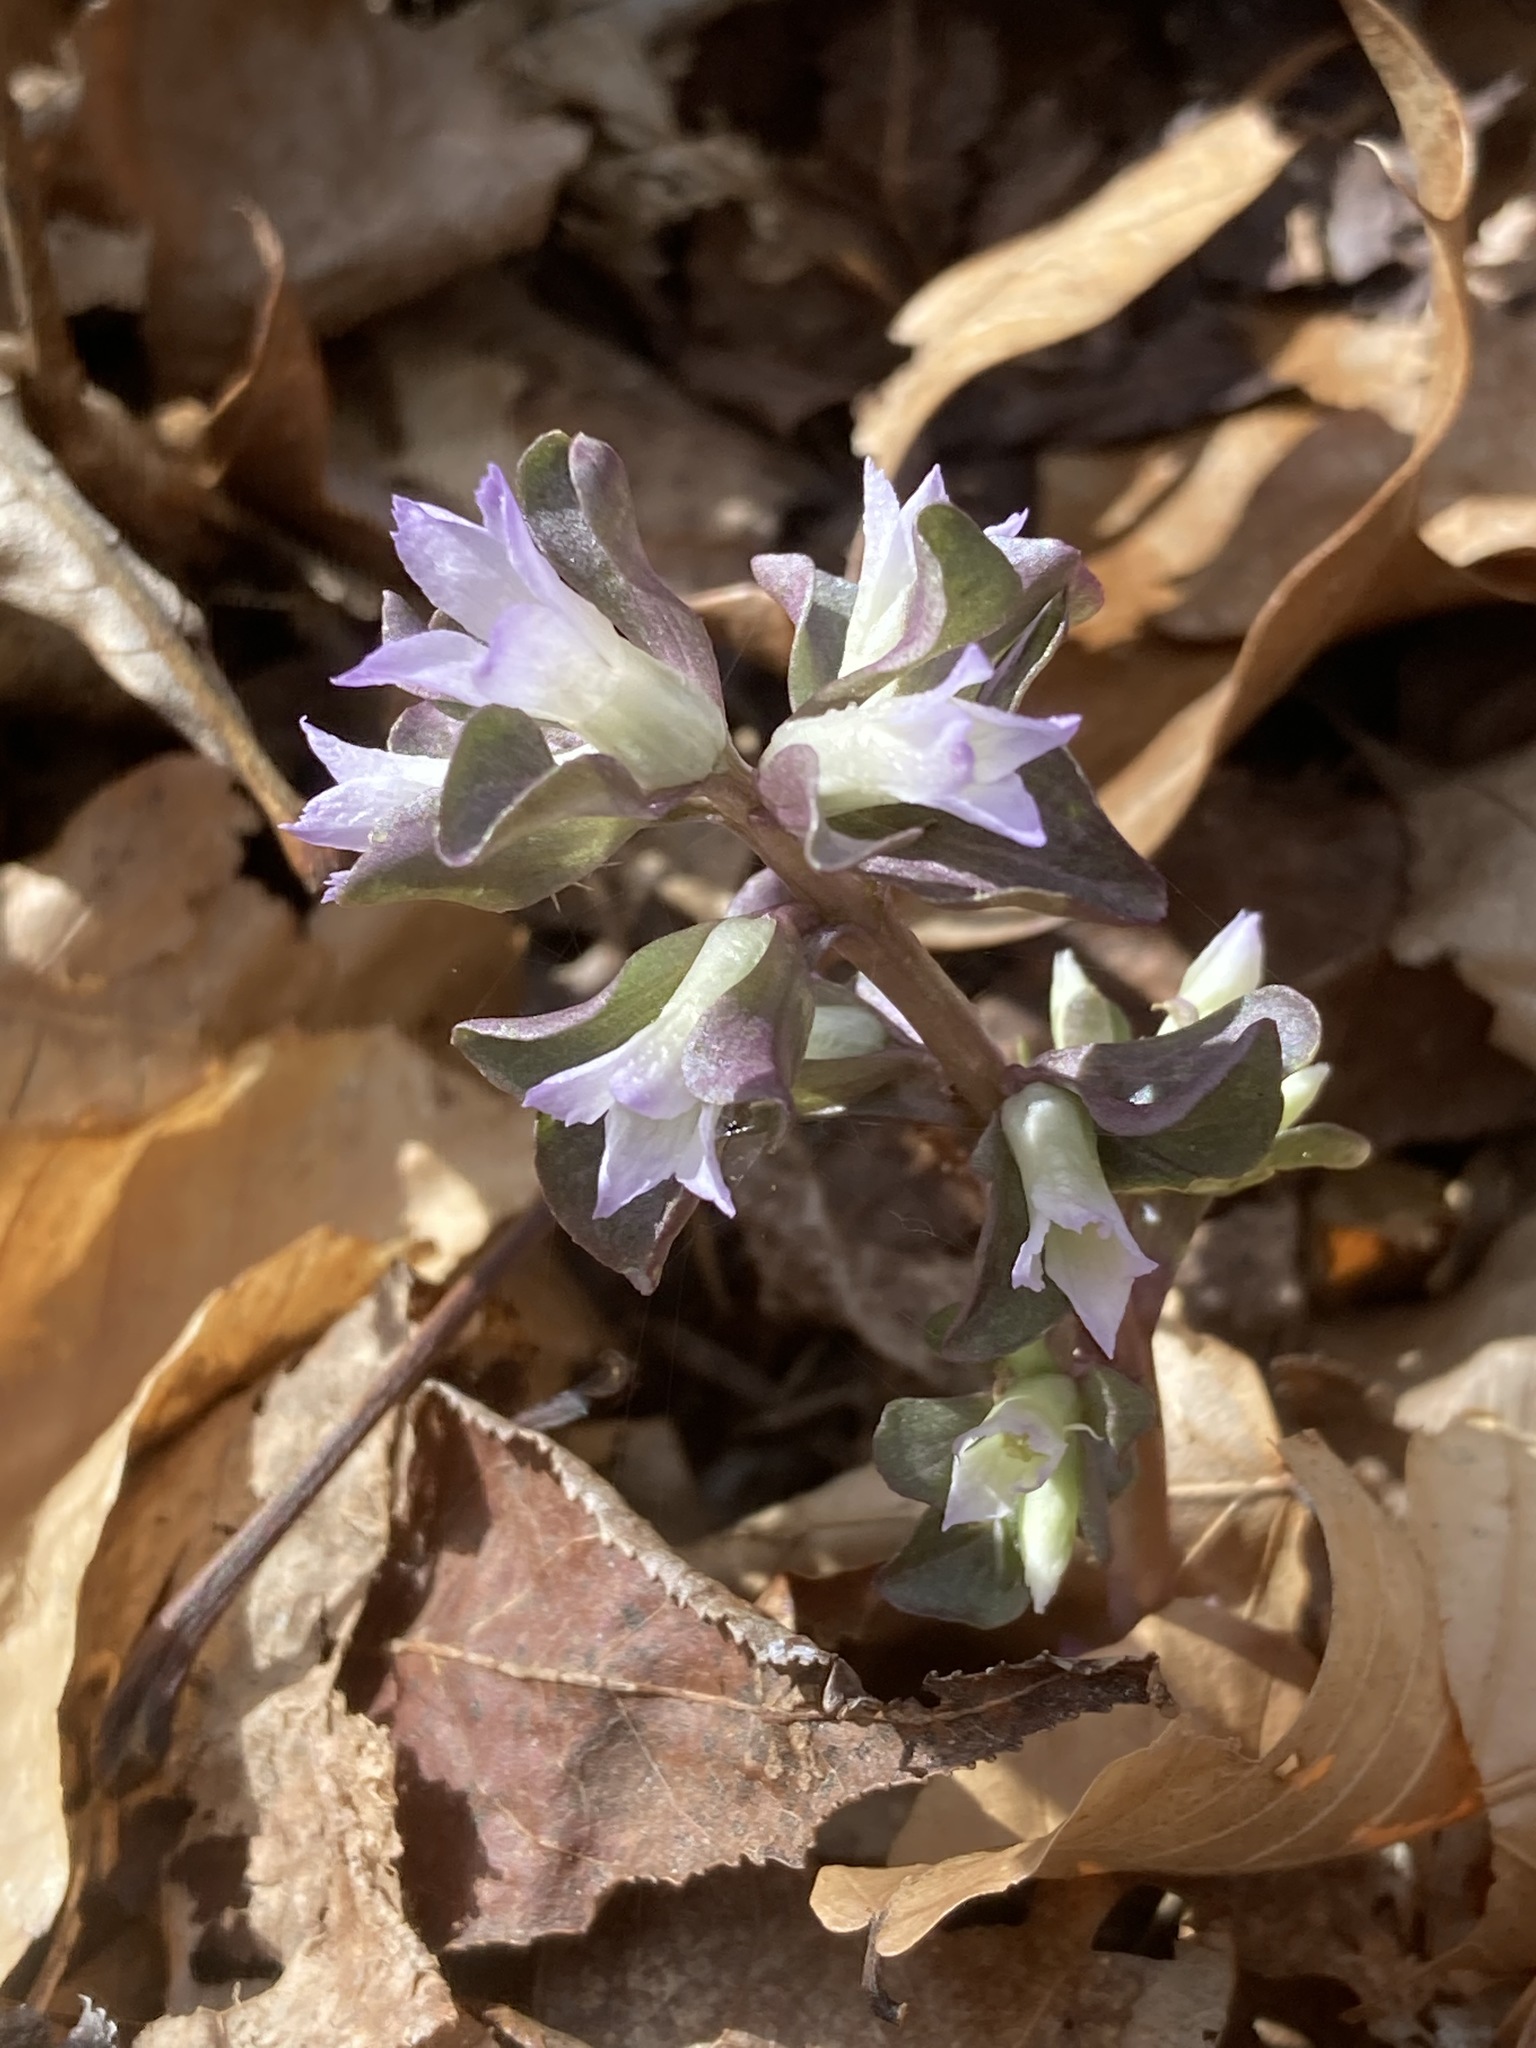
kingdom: Plantae
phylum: Tracheophyta
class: Magnoliopsida
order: Gentianales
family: Gentianaceae
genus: Obolaria
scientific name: Obolaria virginica
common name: Pennywort
